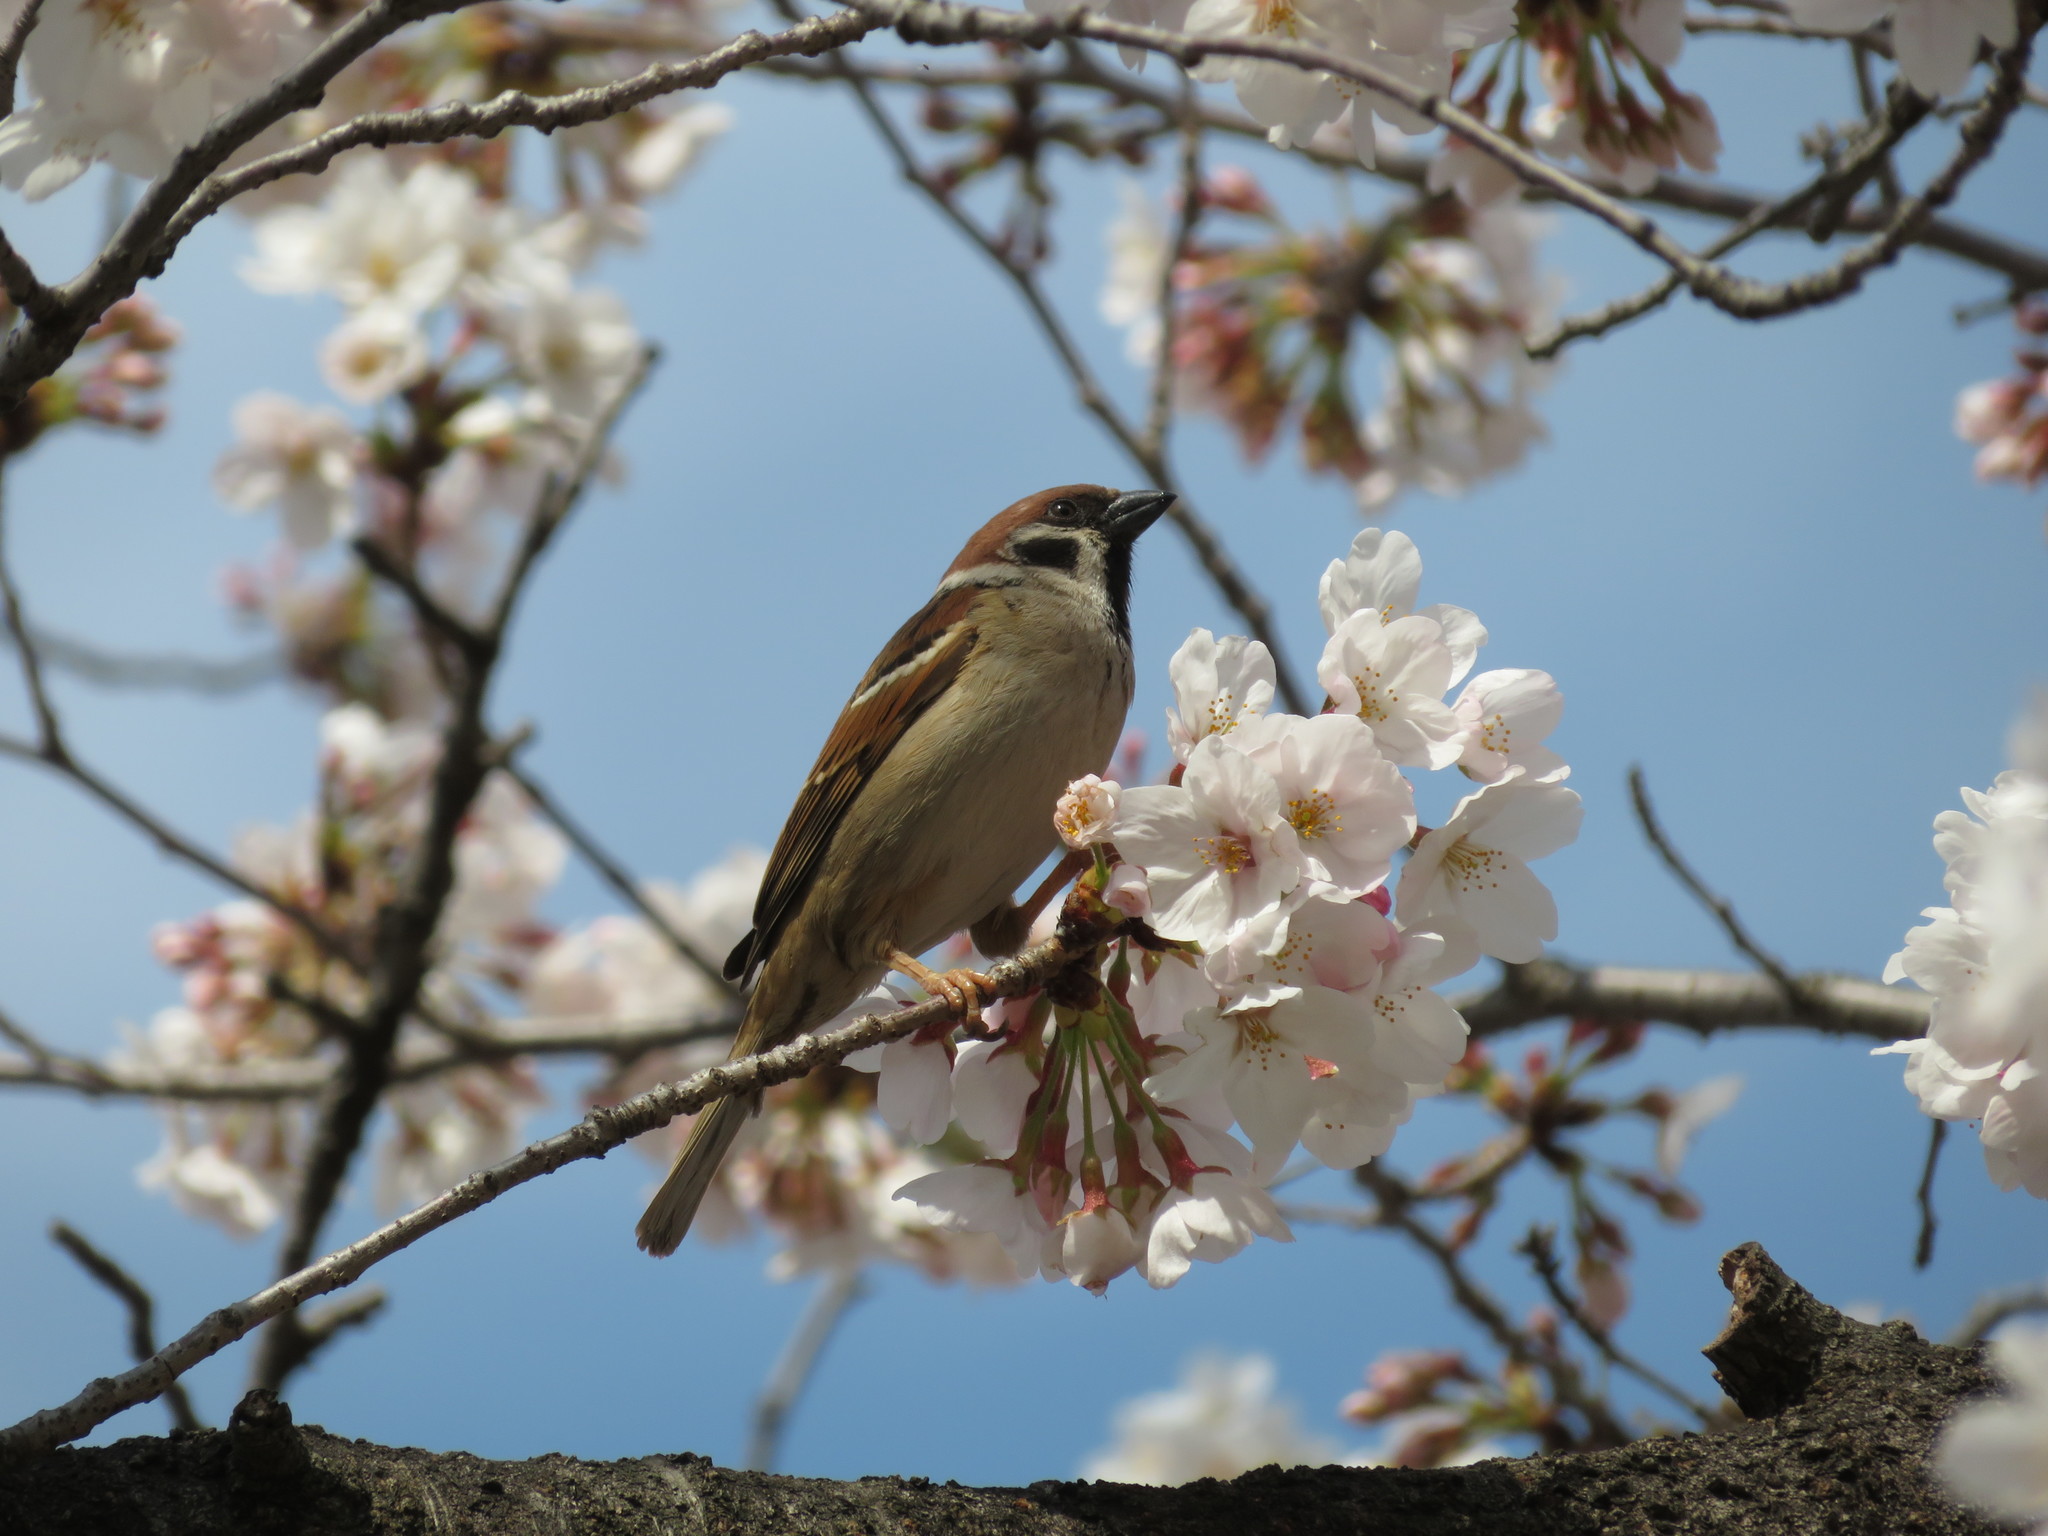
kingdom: Animalia
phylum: Chordata
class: Aves
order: Passeriformes
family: Passeridae
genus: Passer
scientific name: Passer montanus
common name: Eurasian tree sparrow
